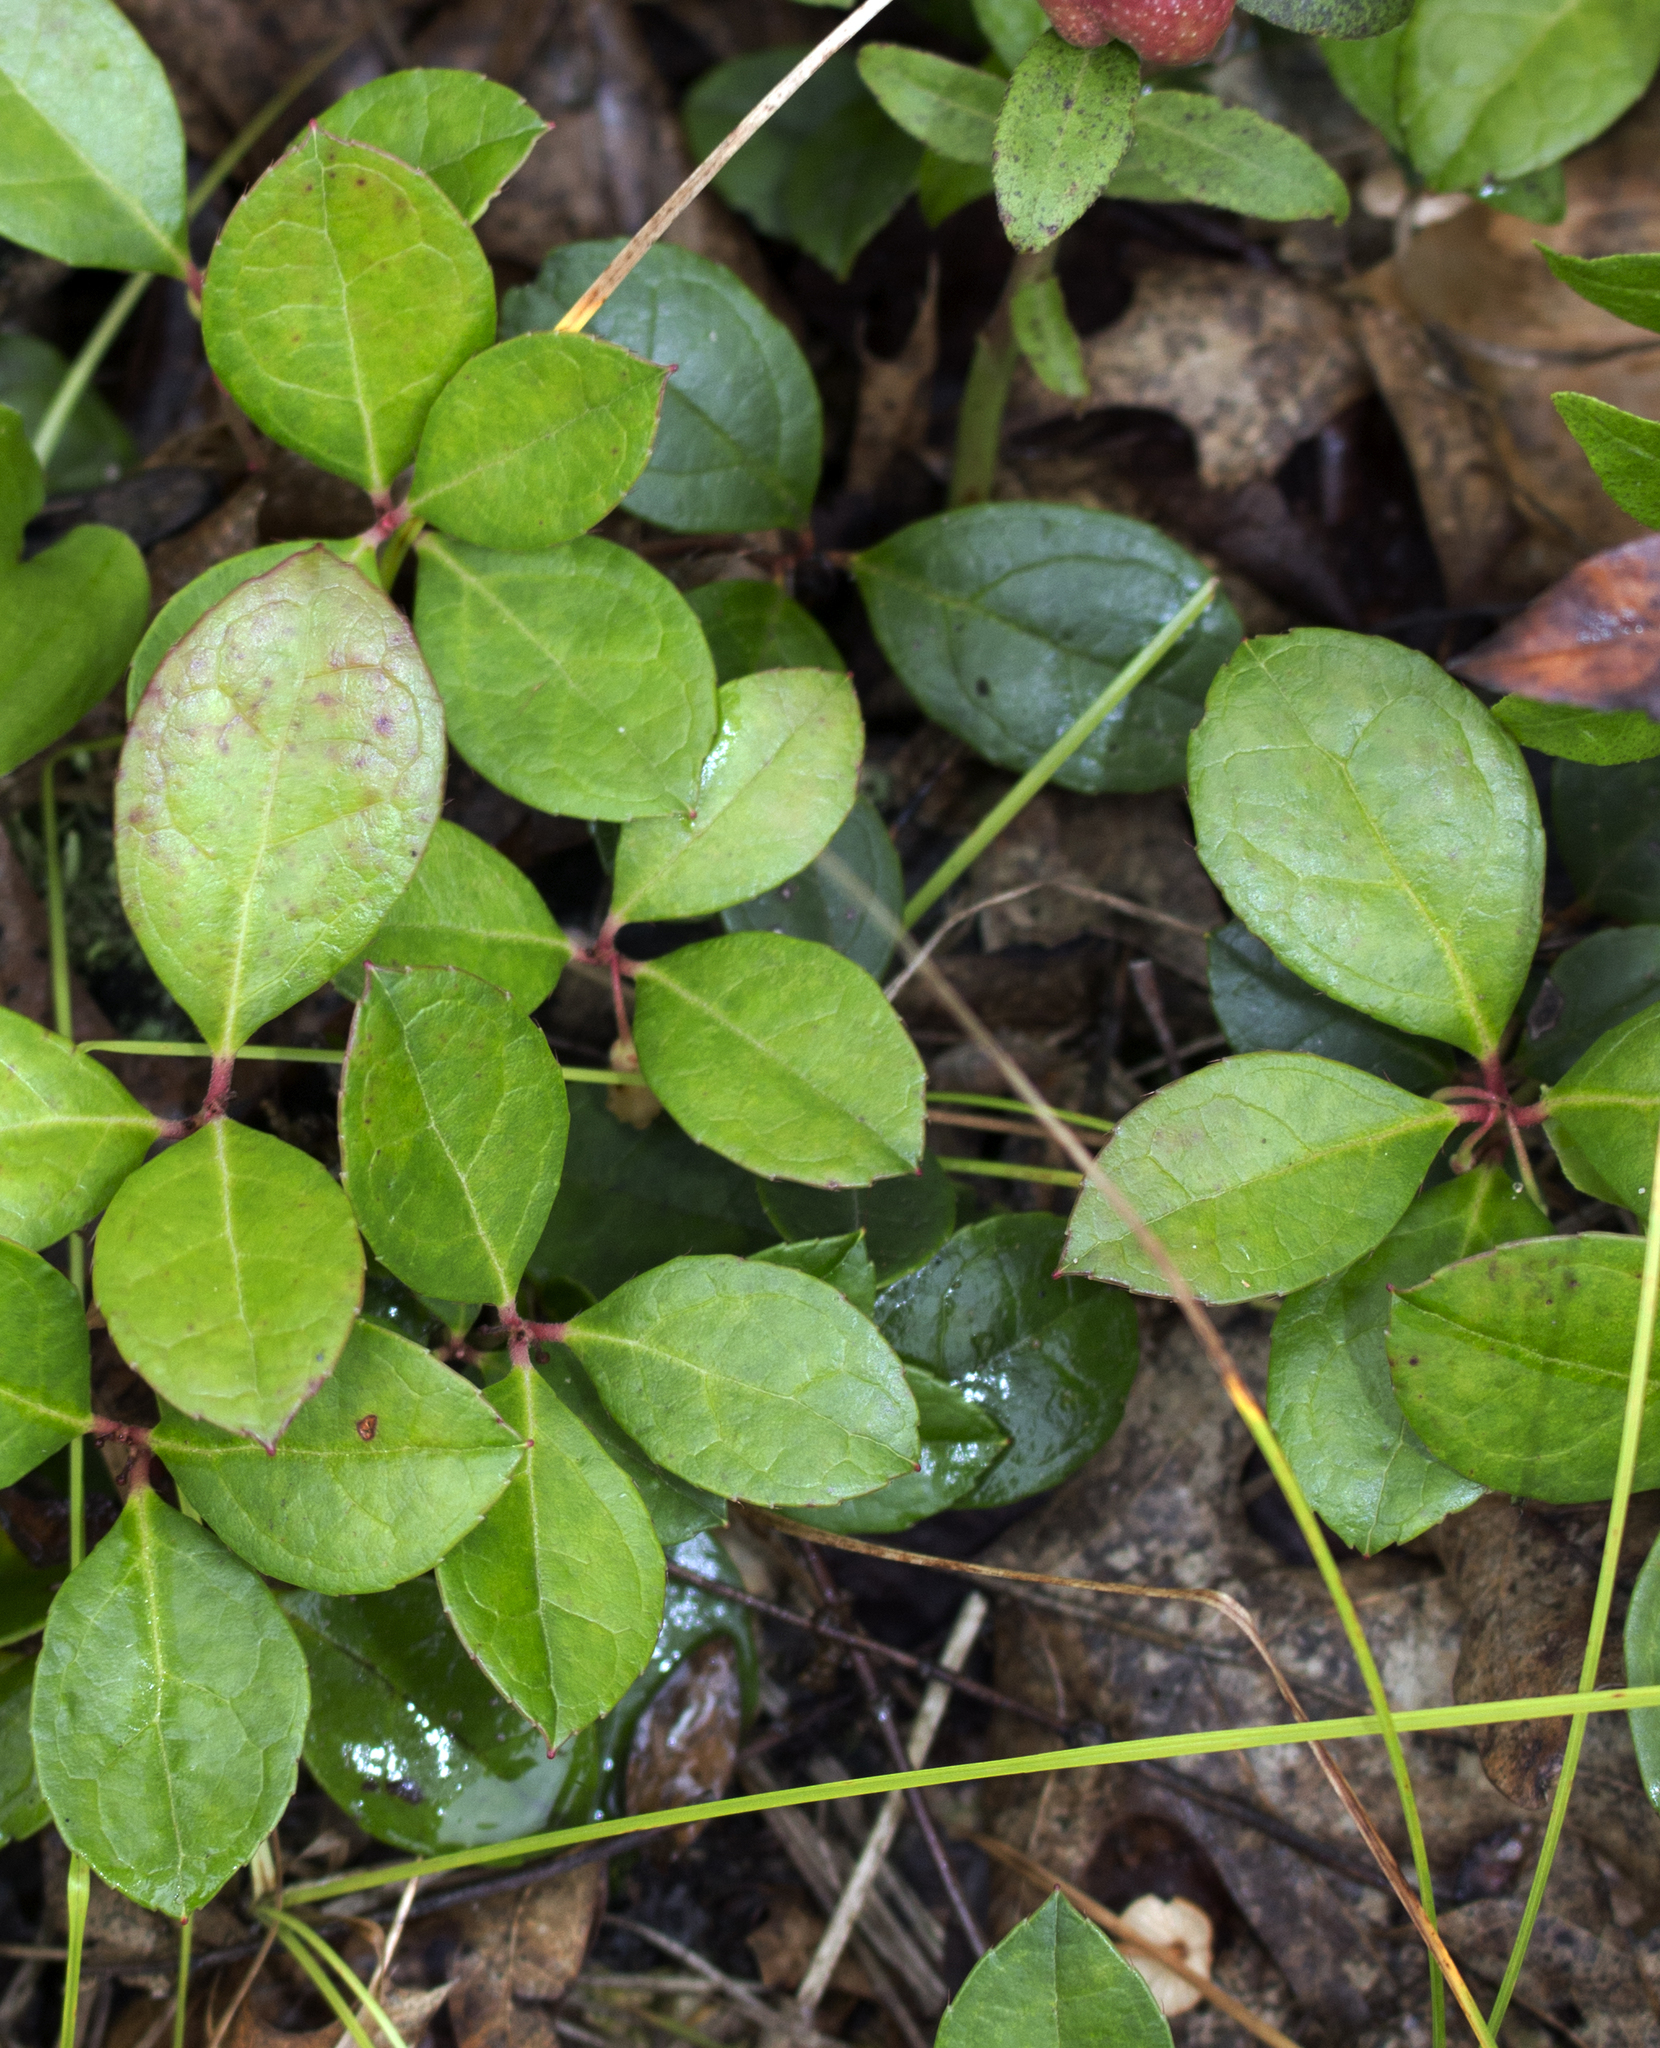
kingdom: Plantae
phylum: Tracheophyta
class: Magnoliopsida
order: Ericales
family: Ericaceae
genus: Gaultheria
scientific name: Gaultheria procumbens
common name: Checkerberry
